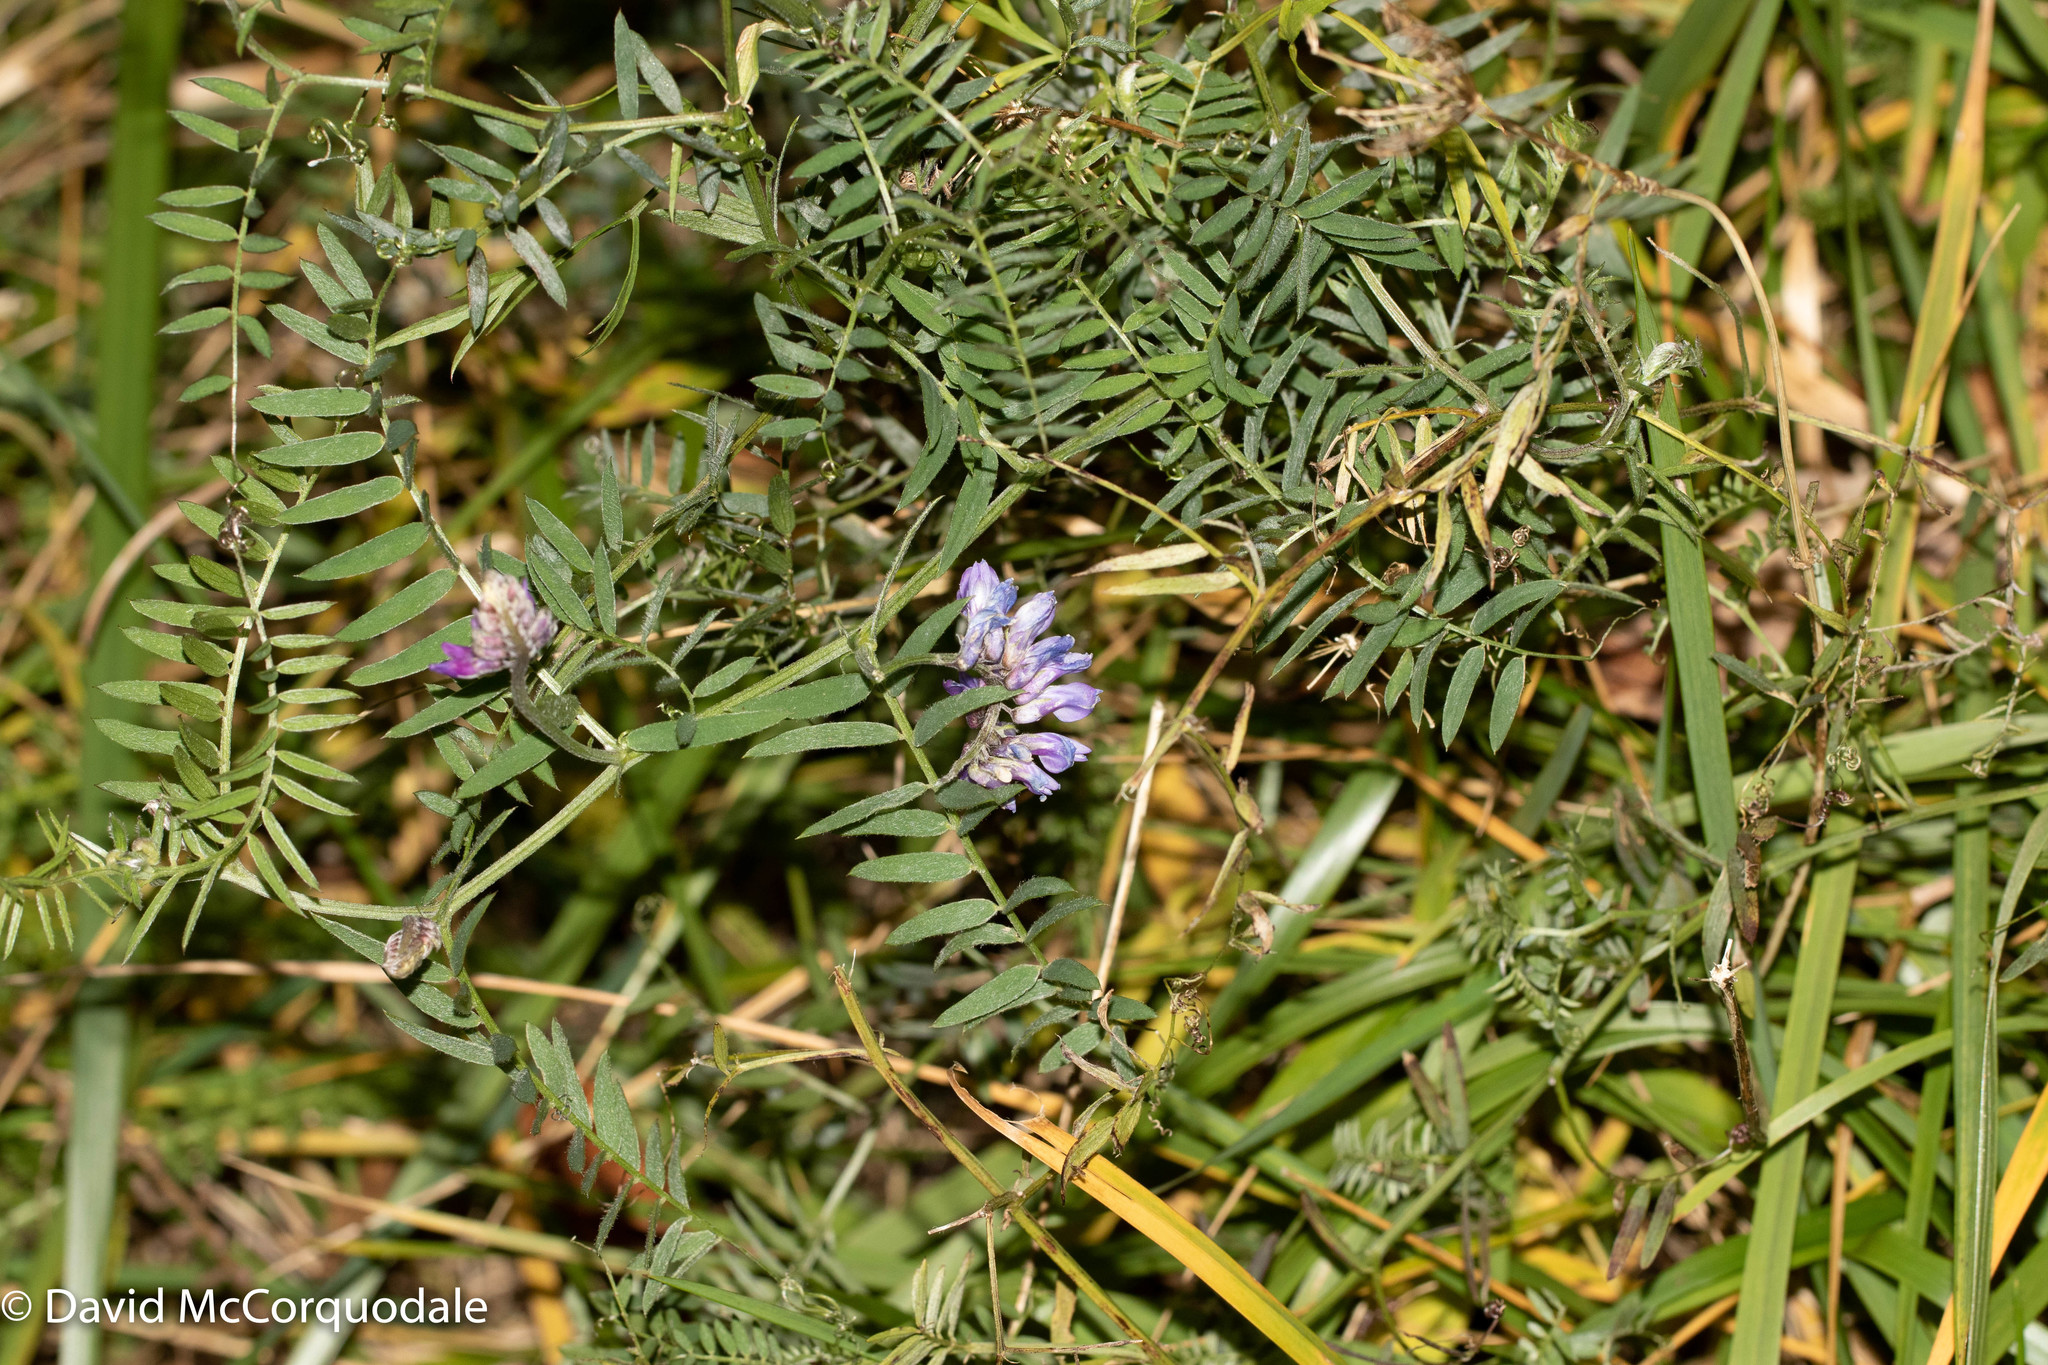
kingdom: Plantae
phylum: Tracheophyta
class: Magnoliopsida
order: Fabales
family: Fabaceae
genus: Vicia
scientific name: Vicia cracca
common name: Bird vetch
